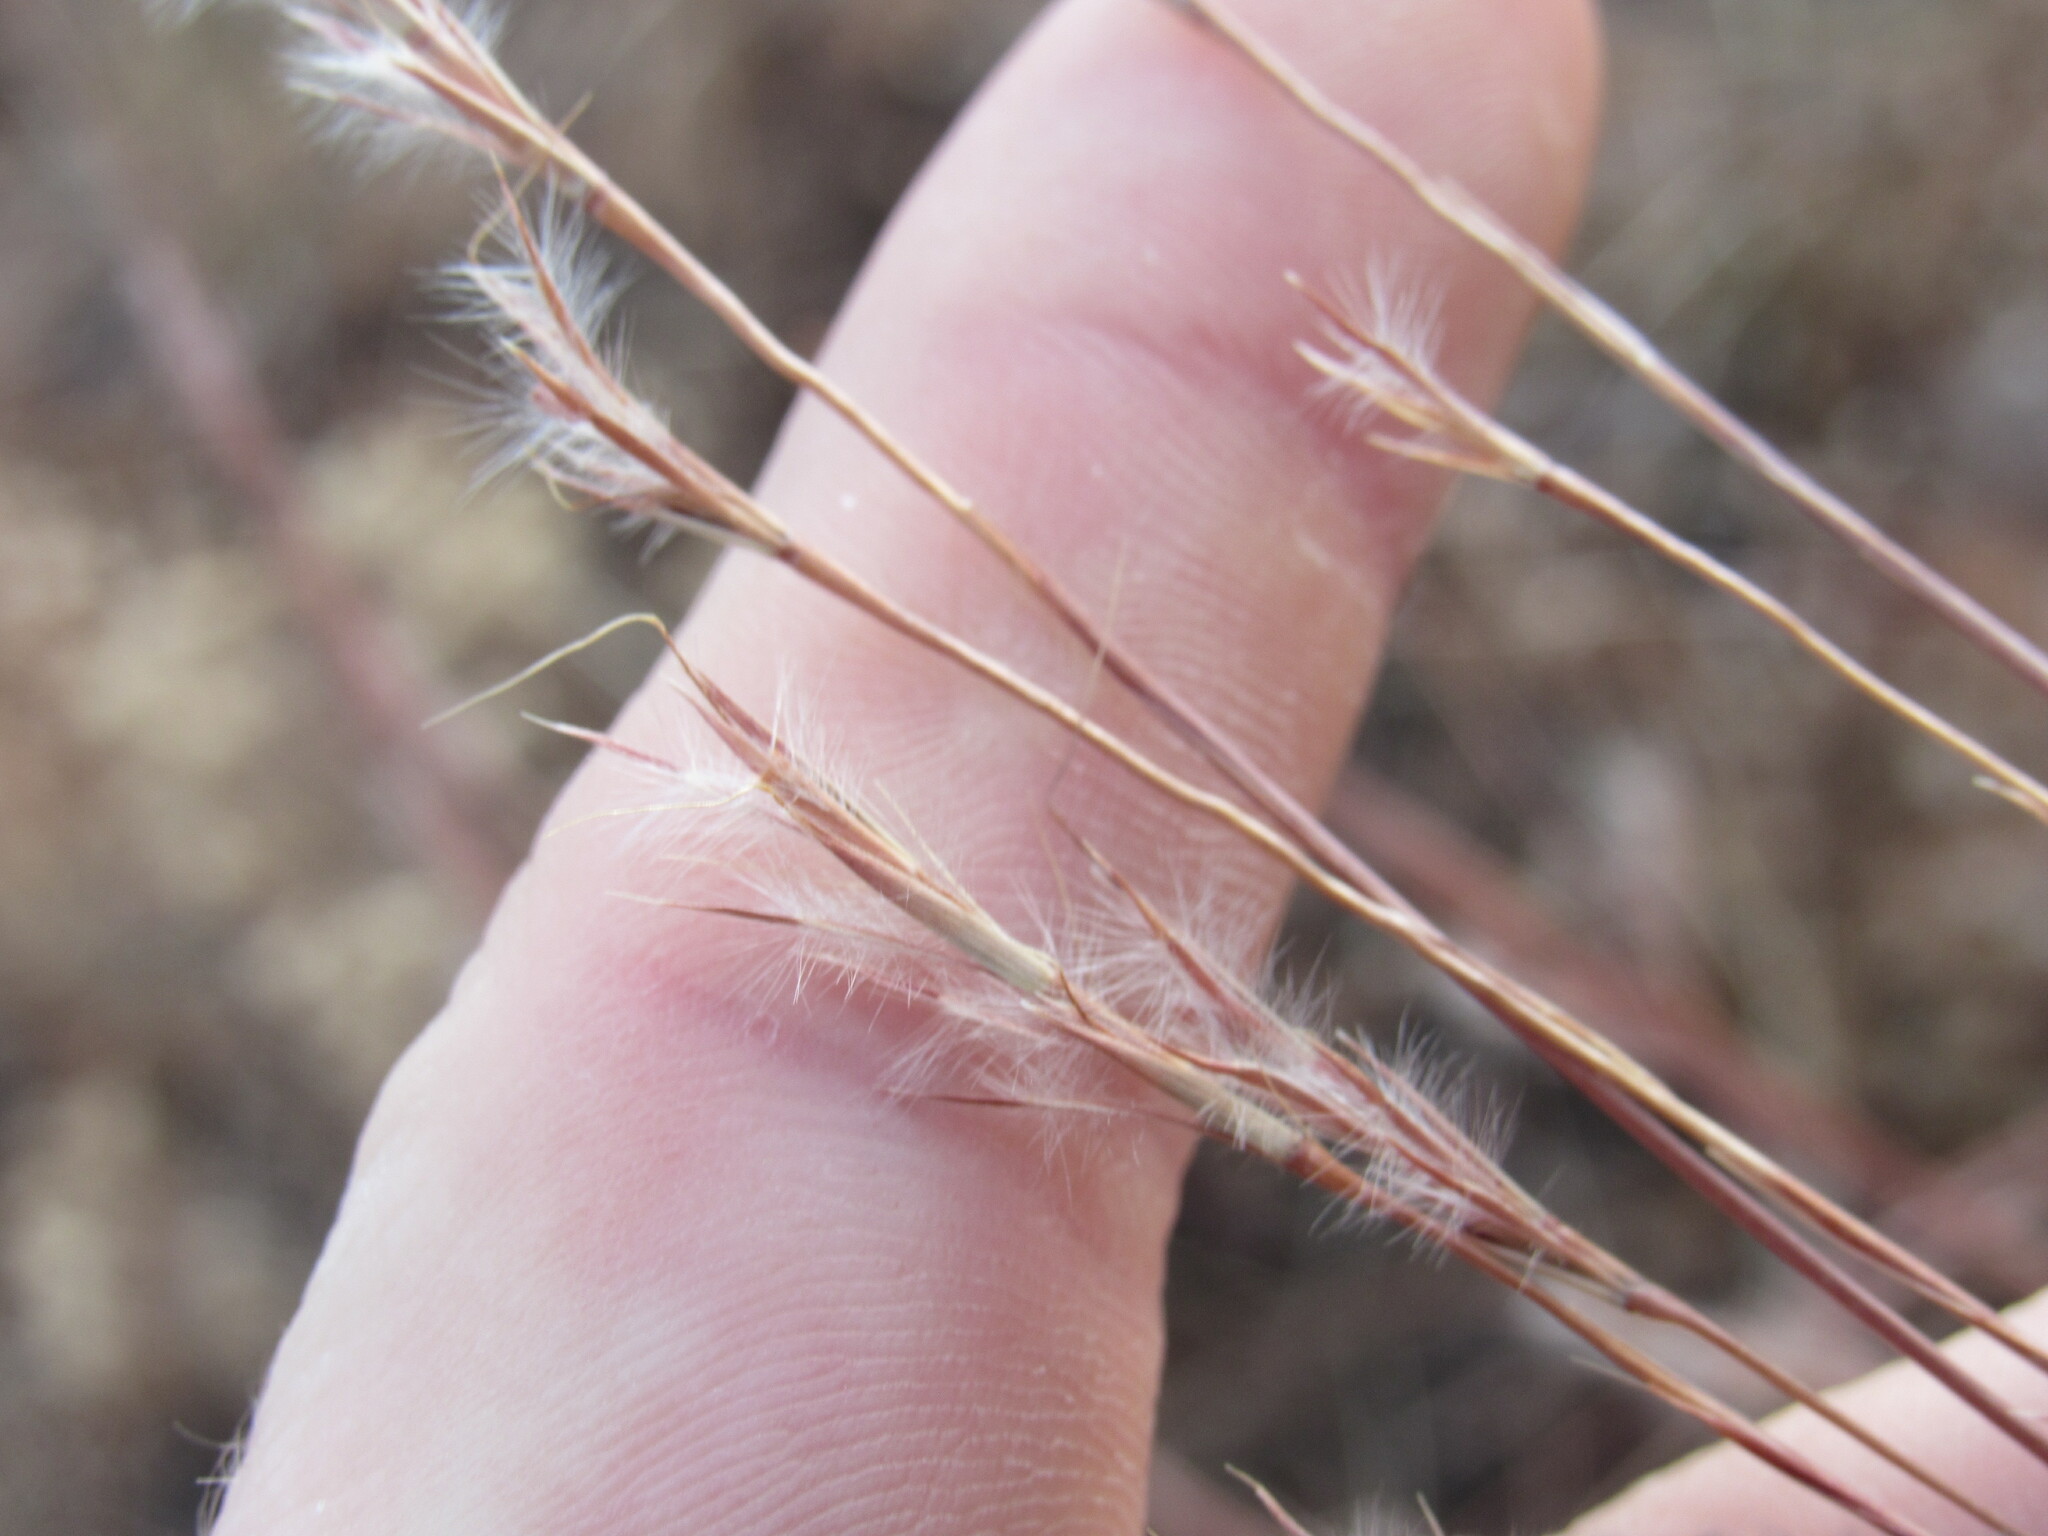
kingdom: Plantae
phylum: Tracheophyta
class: Liliopsida
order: Poales
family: Poaceae
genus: Schizachyrium
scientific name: Schizachyrium scoparium
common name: Little bluestem
